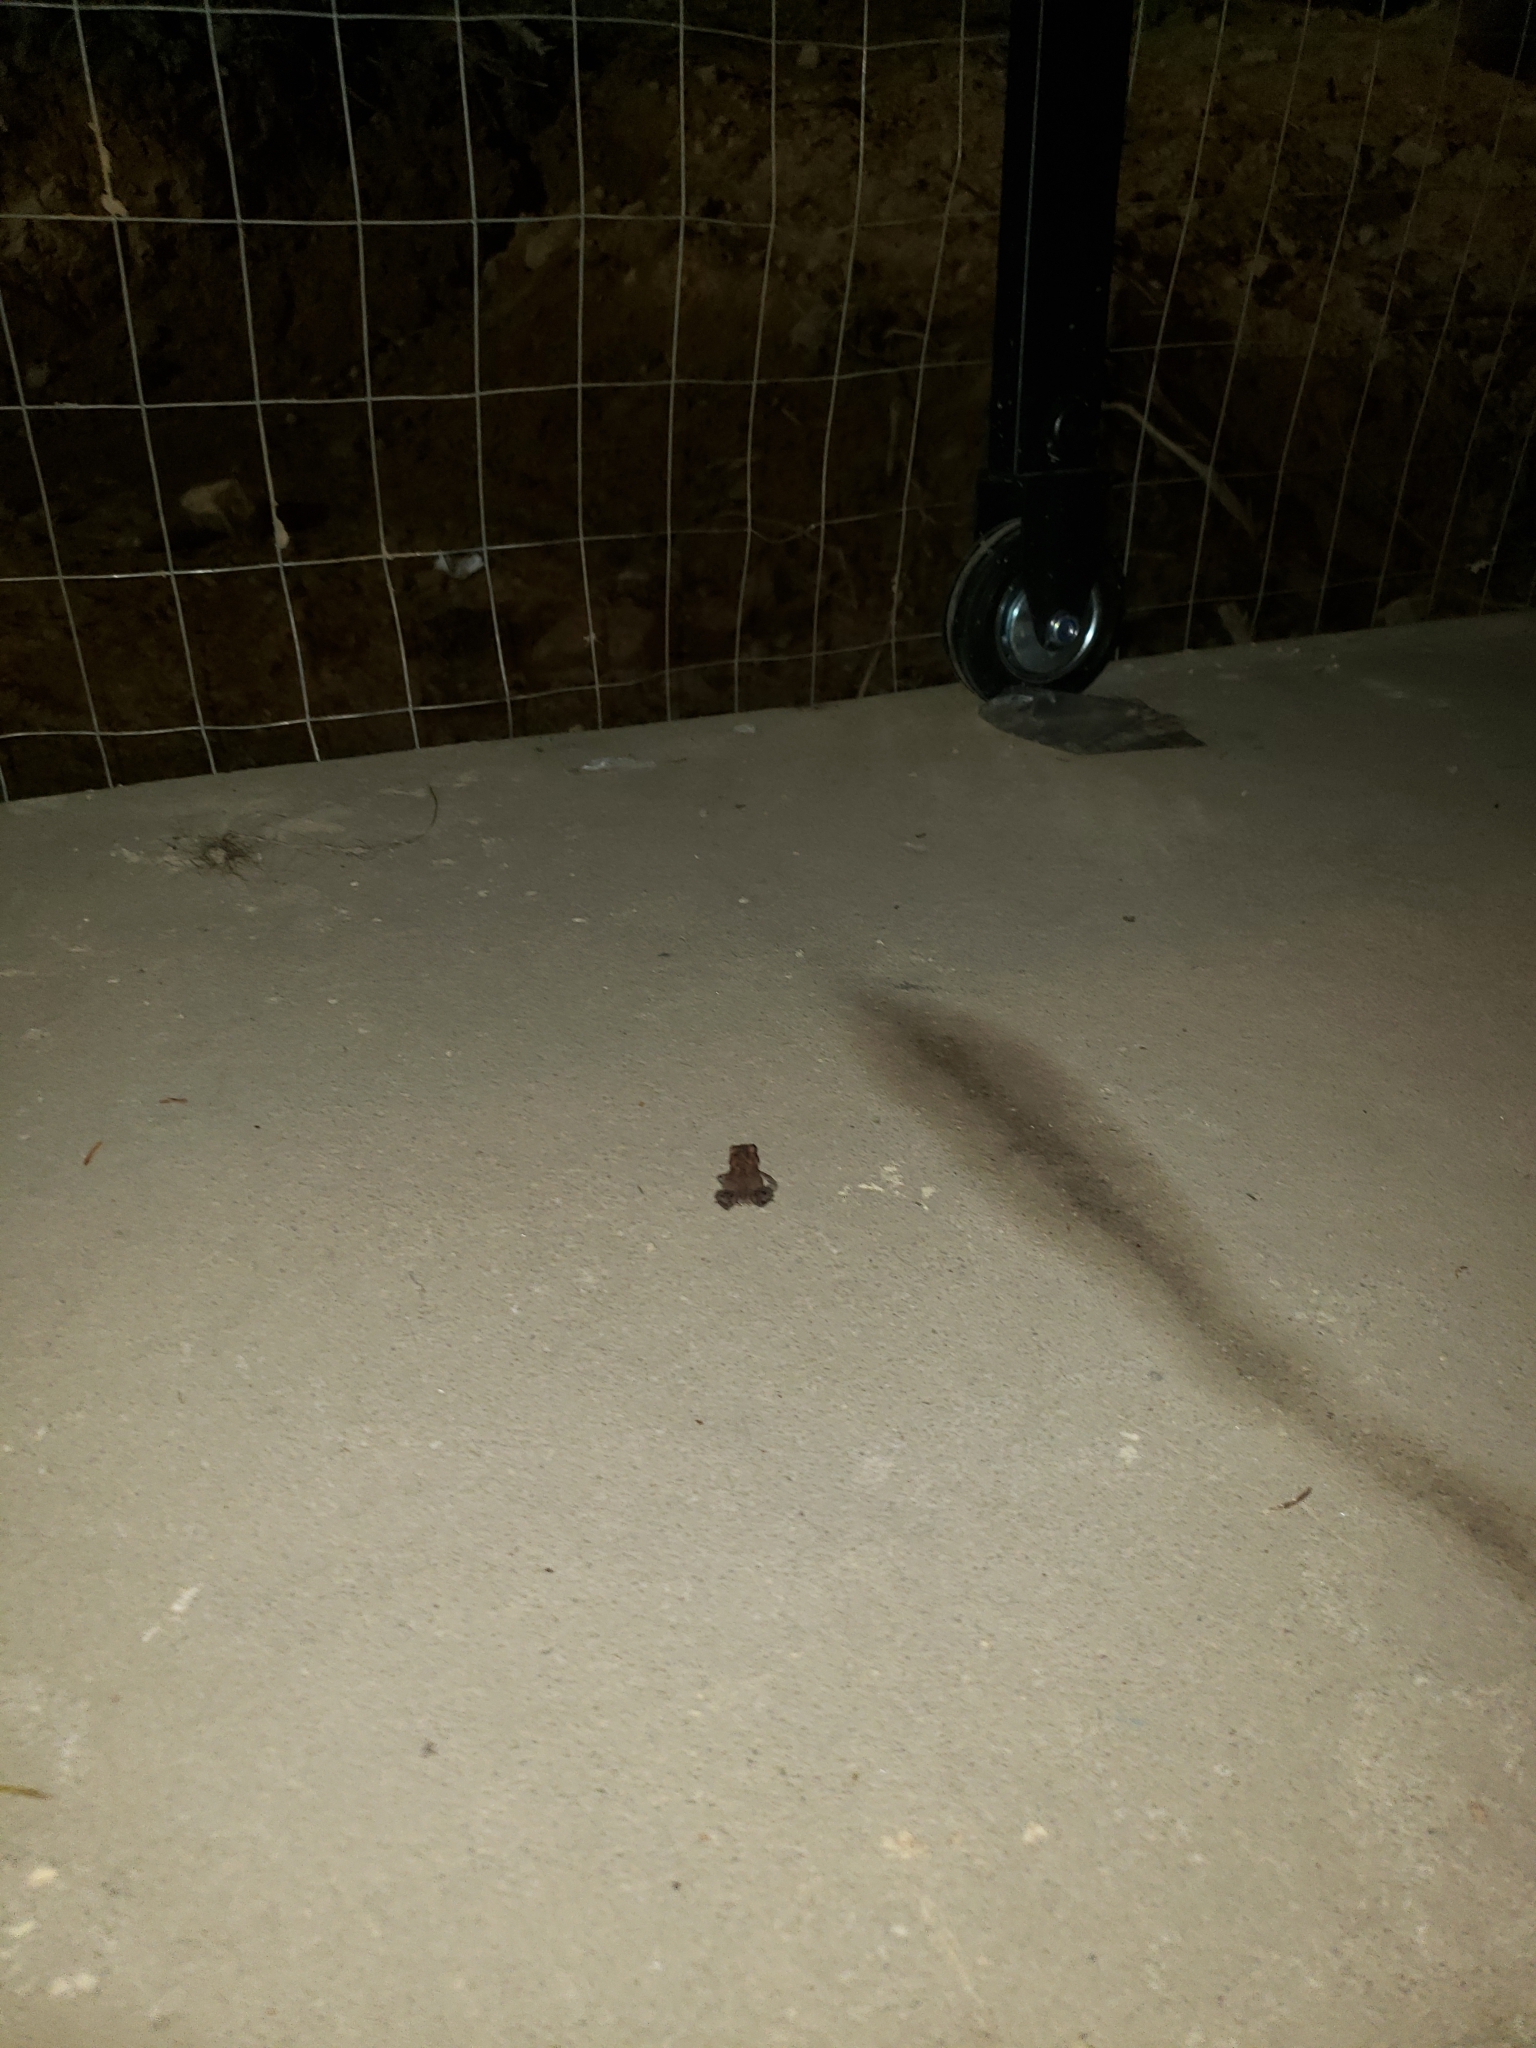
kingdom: Animalia
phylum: Chordata
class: Amphibia
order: Anura
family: Bufonidae
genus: Anaxyrus
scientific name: Anaxyrus americanus
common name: American toad
